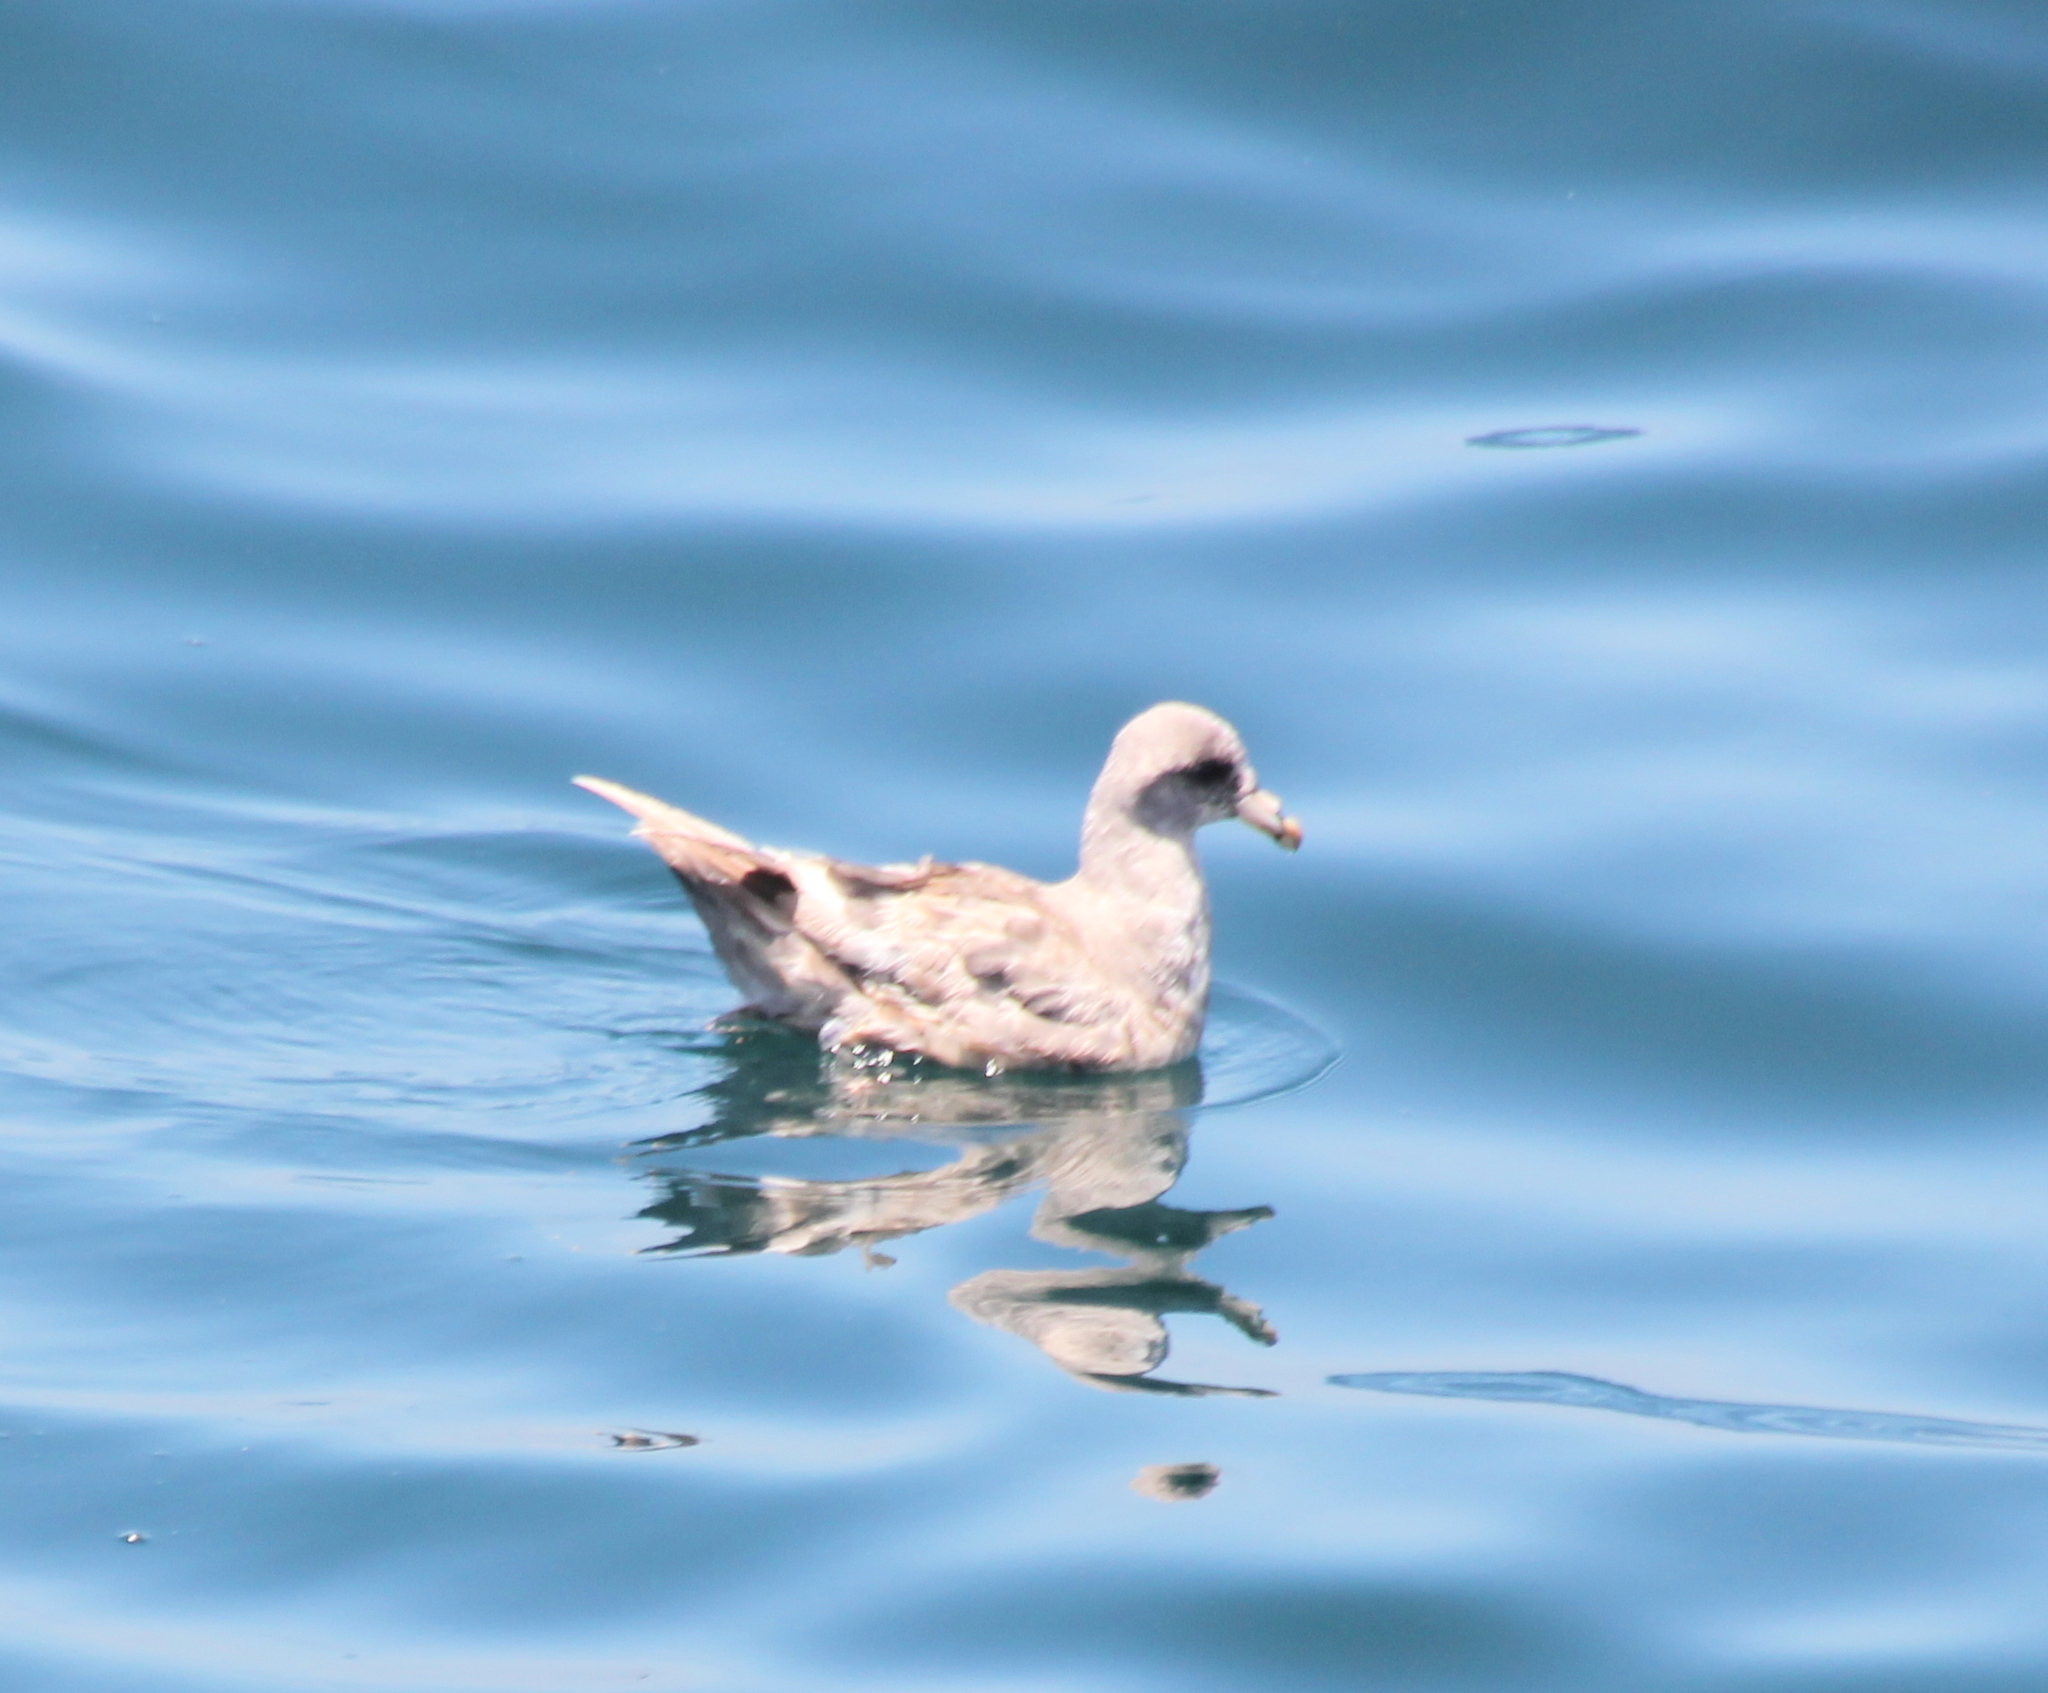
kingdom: Animalia
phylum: Chordata
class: Aves
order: Procellariiformes
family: Procellariidae
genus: Fulmarus
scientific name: Fulmarus glacialis
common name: Northern fulmar
